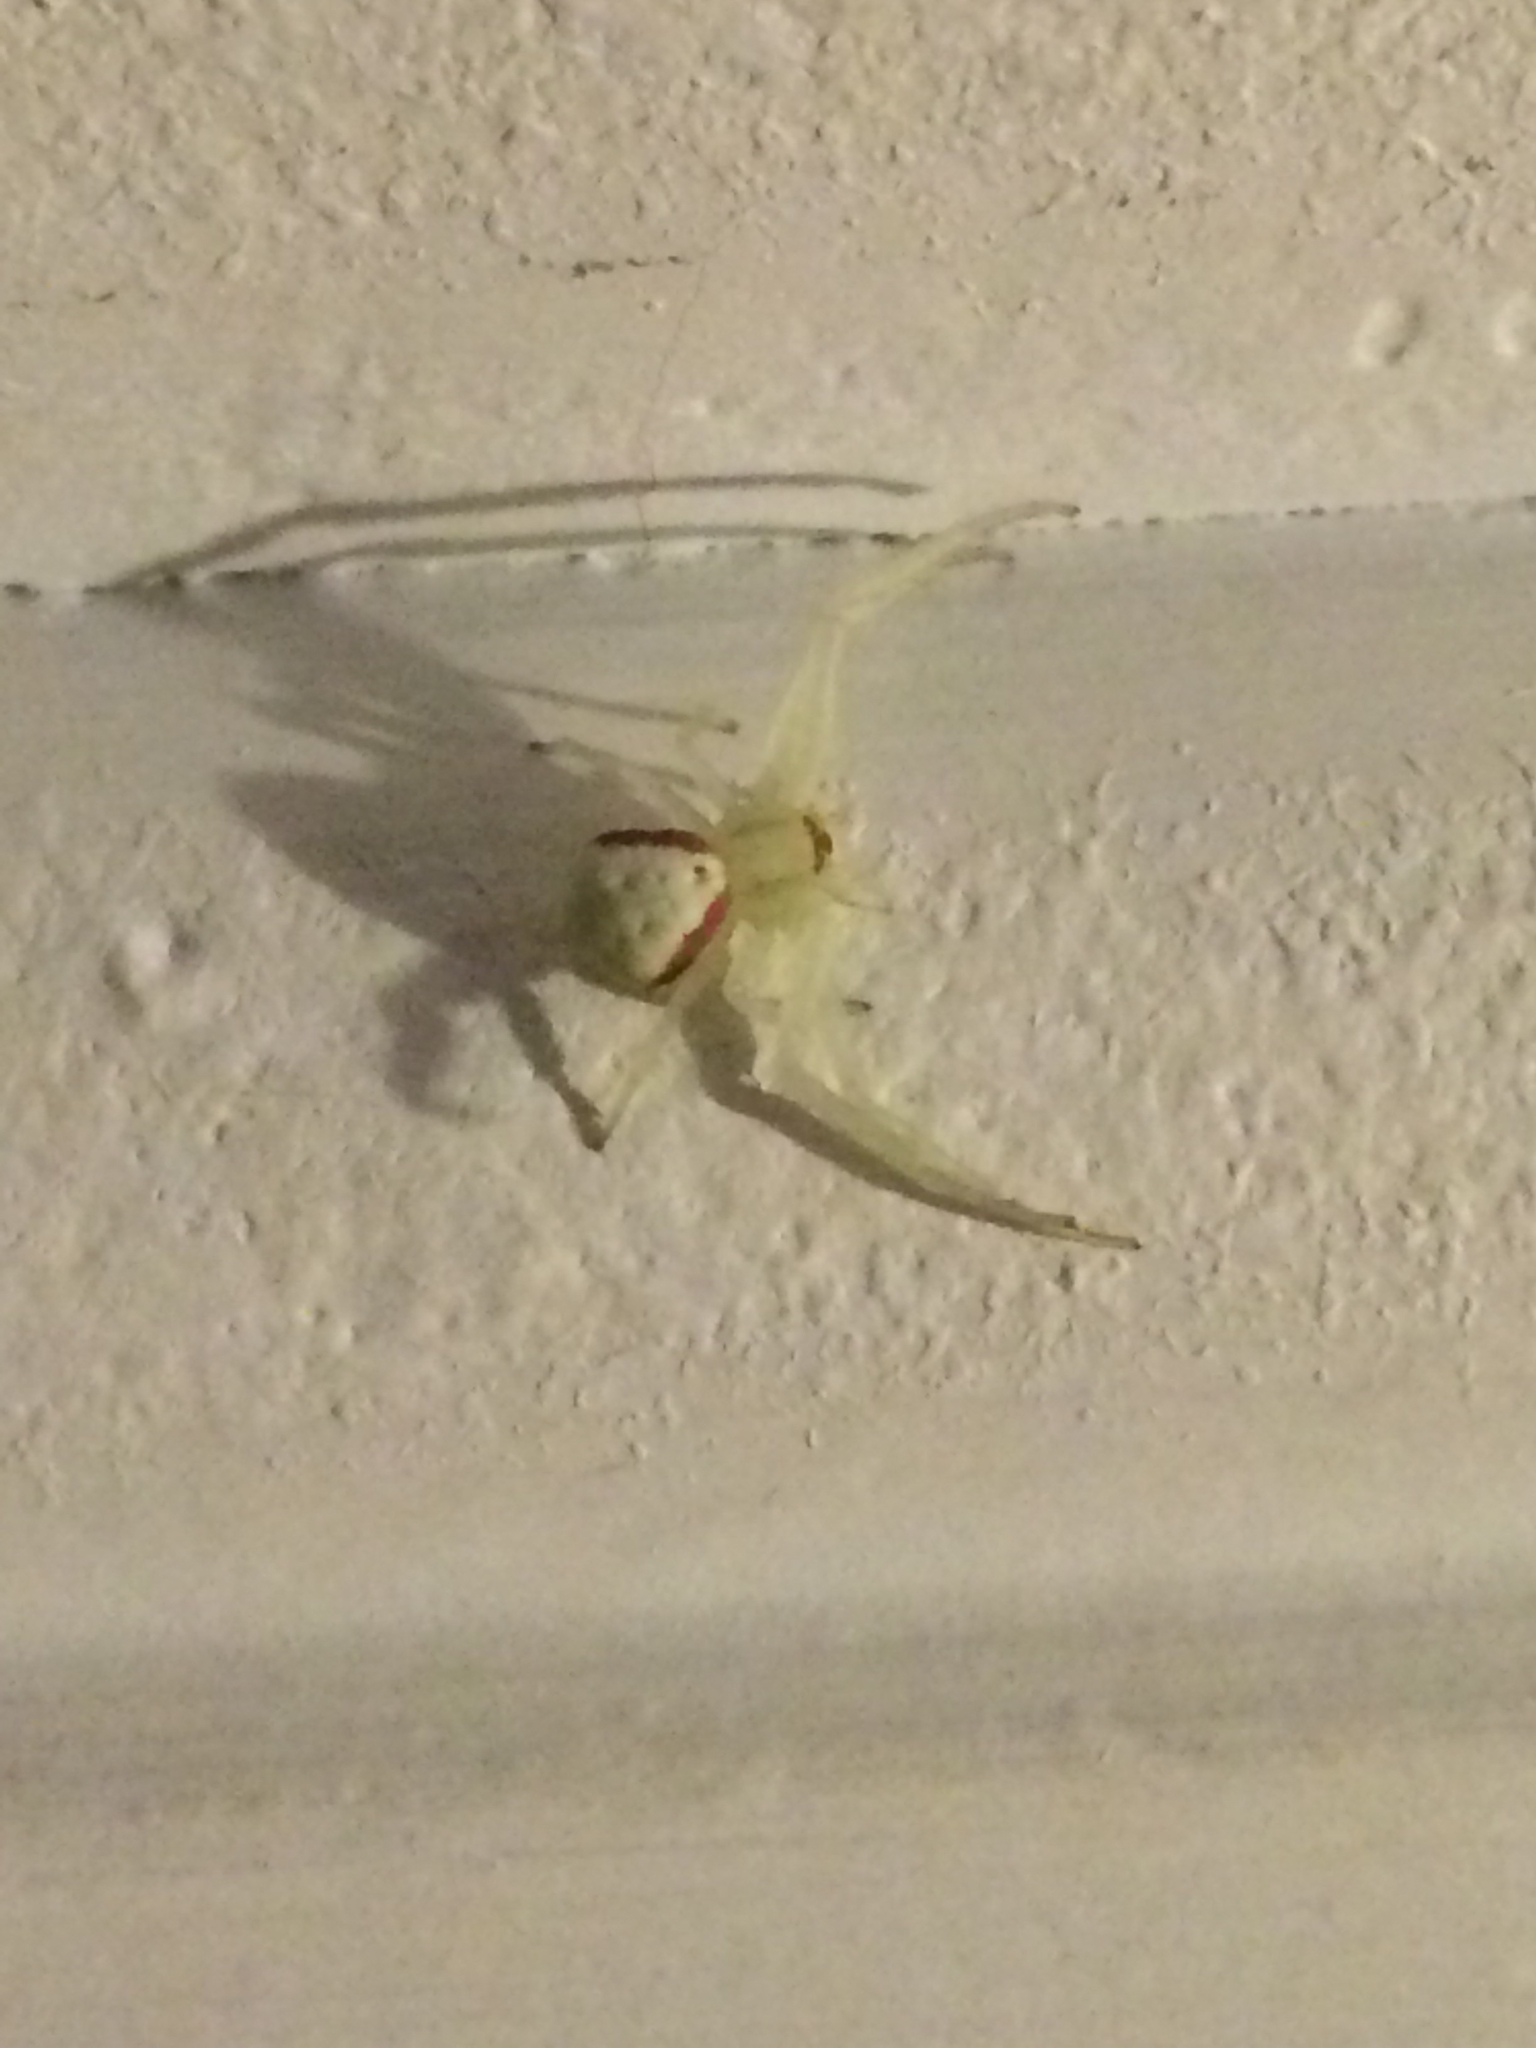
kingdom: Animalia
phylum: Arthropoda
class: Arachnida
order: Araneae
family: Thomisidae
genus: Misumena
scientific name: Misumena vatia
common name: Goldenrod crab spider
